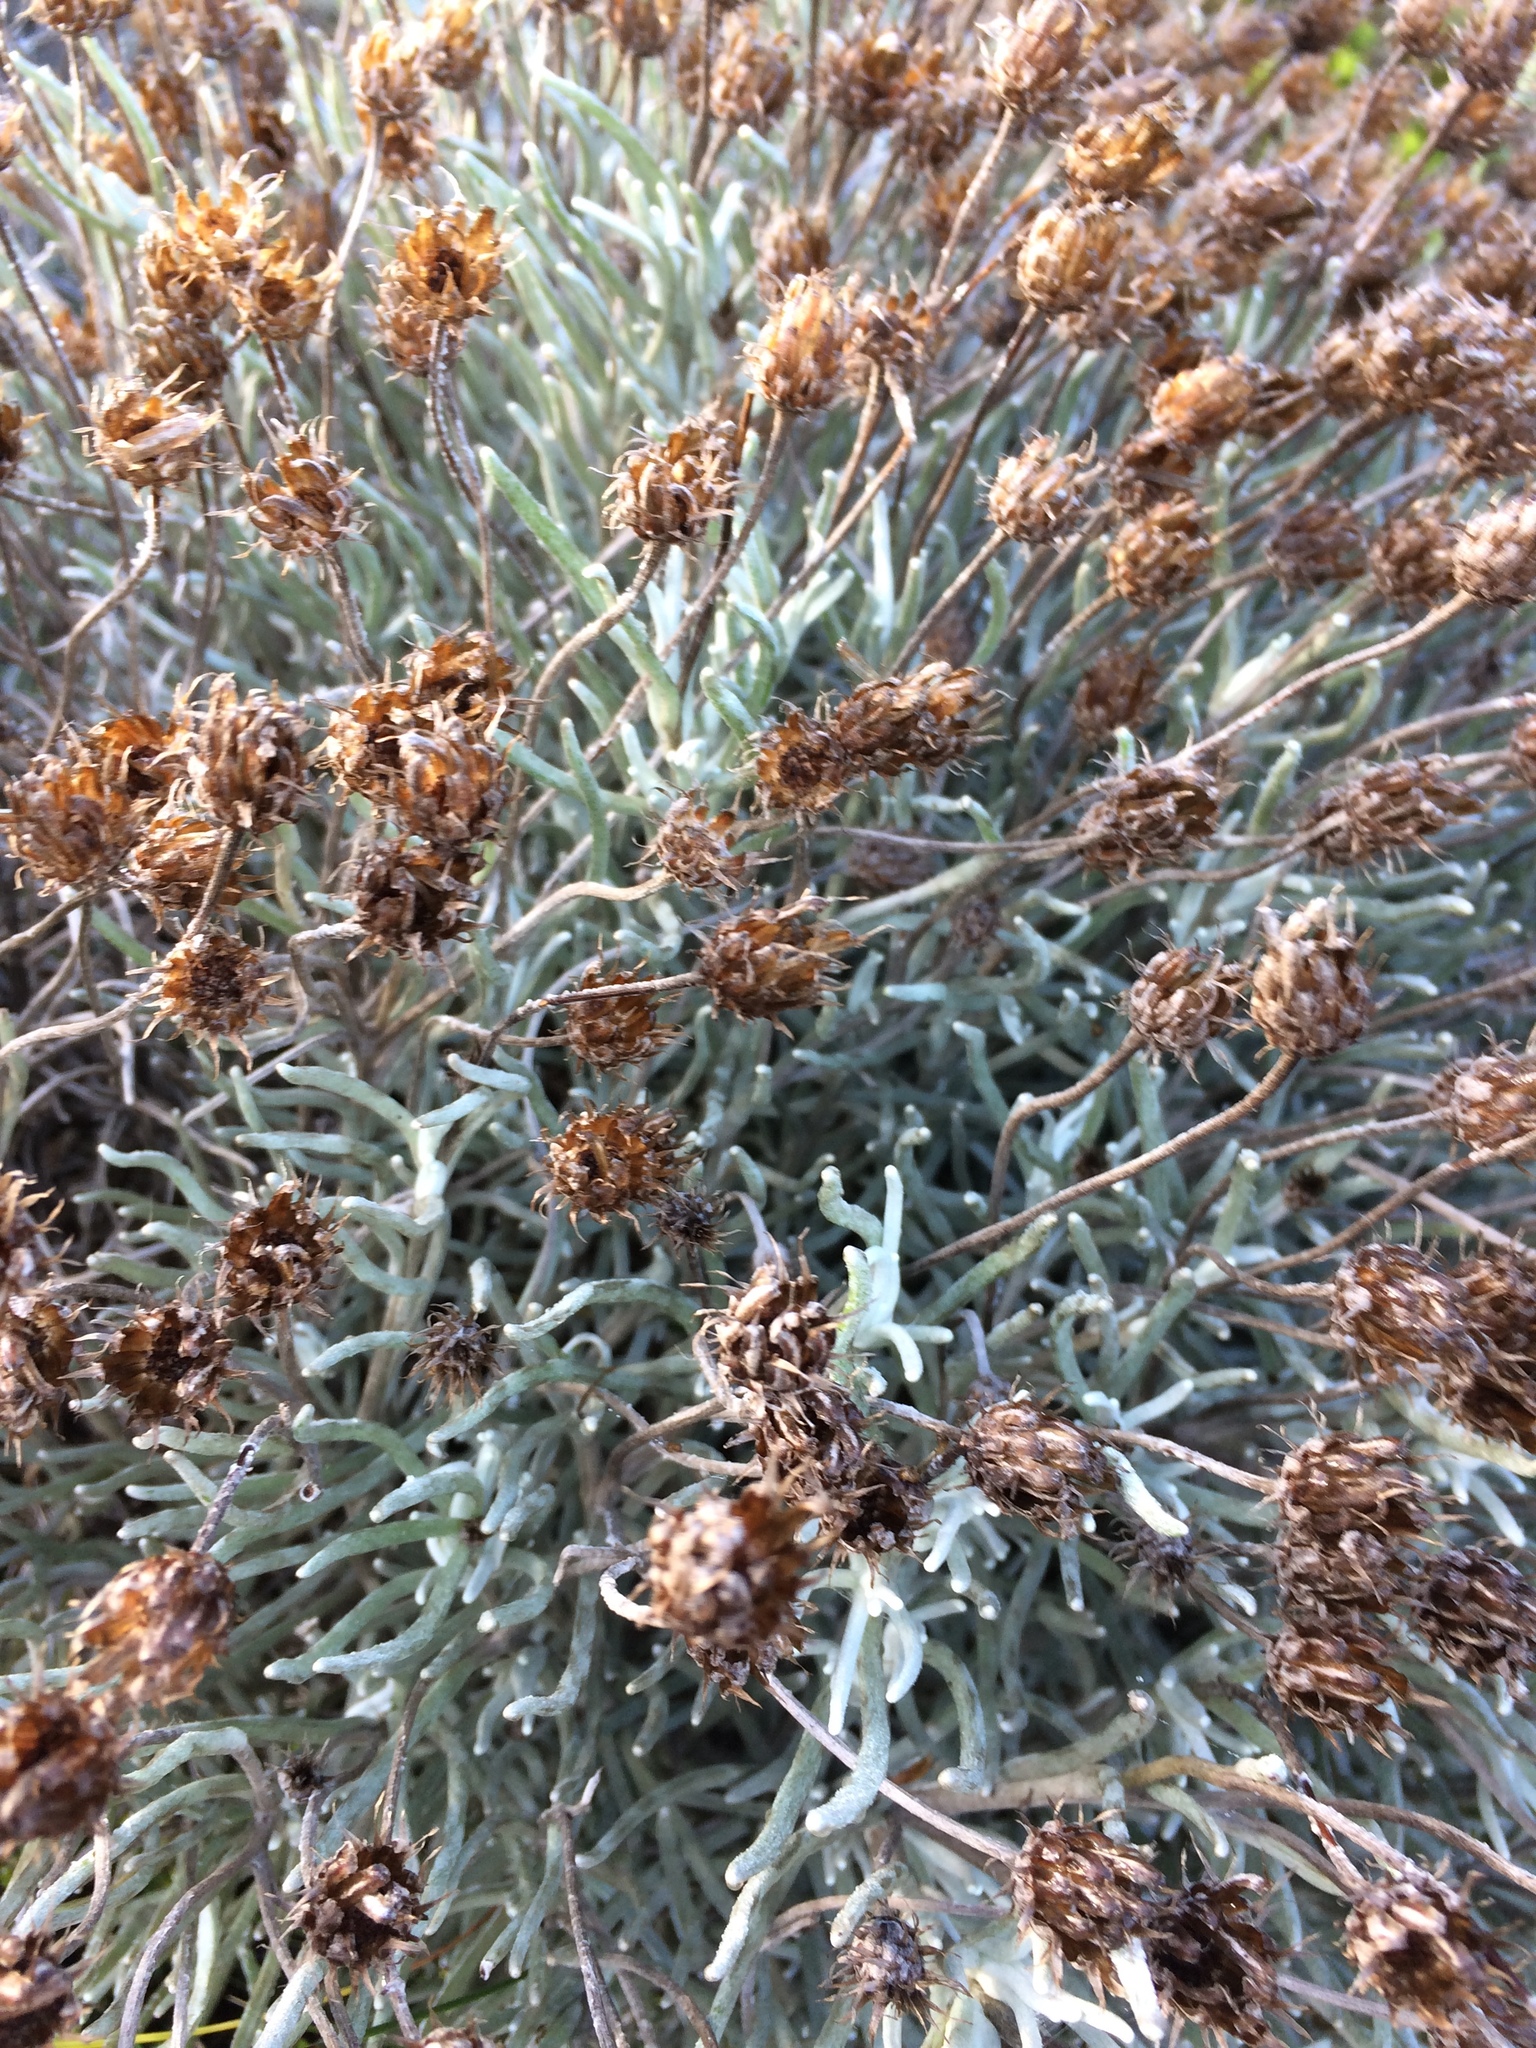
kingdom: Plantae
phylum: Tracheophyta
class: Magnoliopsida
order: Asterales
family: Asteraceae
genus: Syncarpha
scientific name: Syncarpha gnaphaloides
